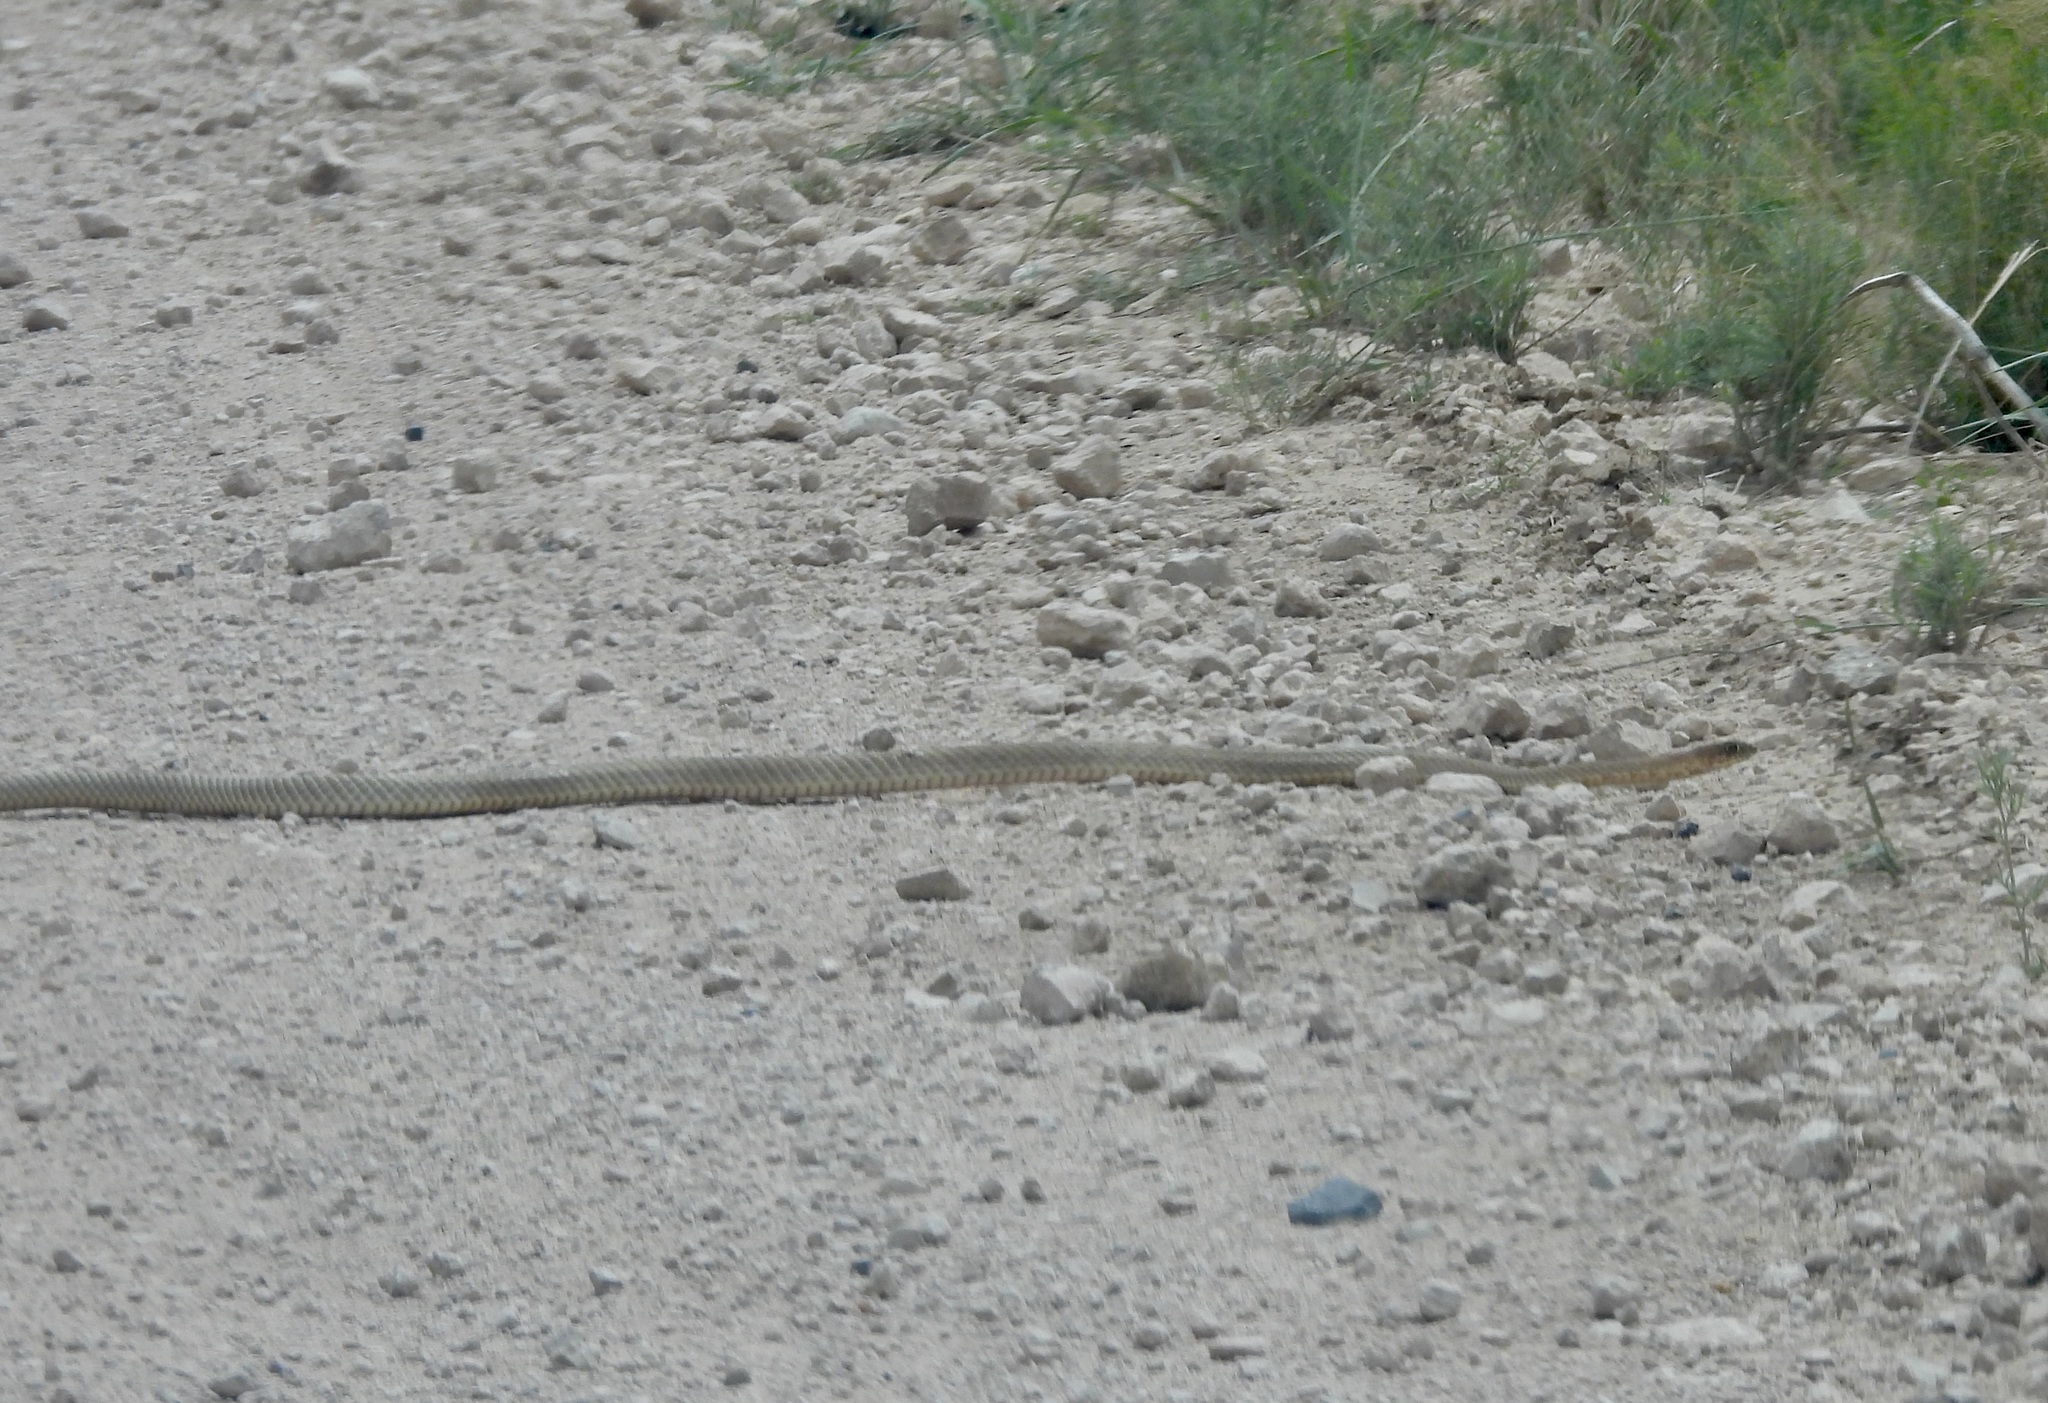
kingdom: Animalia
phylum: Chordata
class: Squamata
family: Colubridae
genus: Masticophis
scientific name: Masticophis flagellum
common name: Coachwhip
